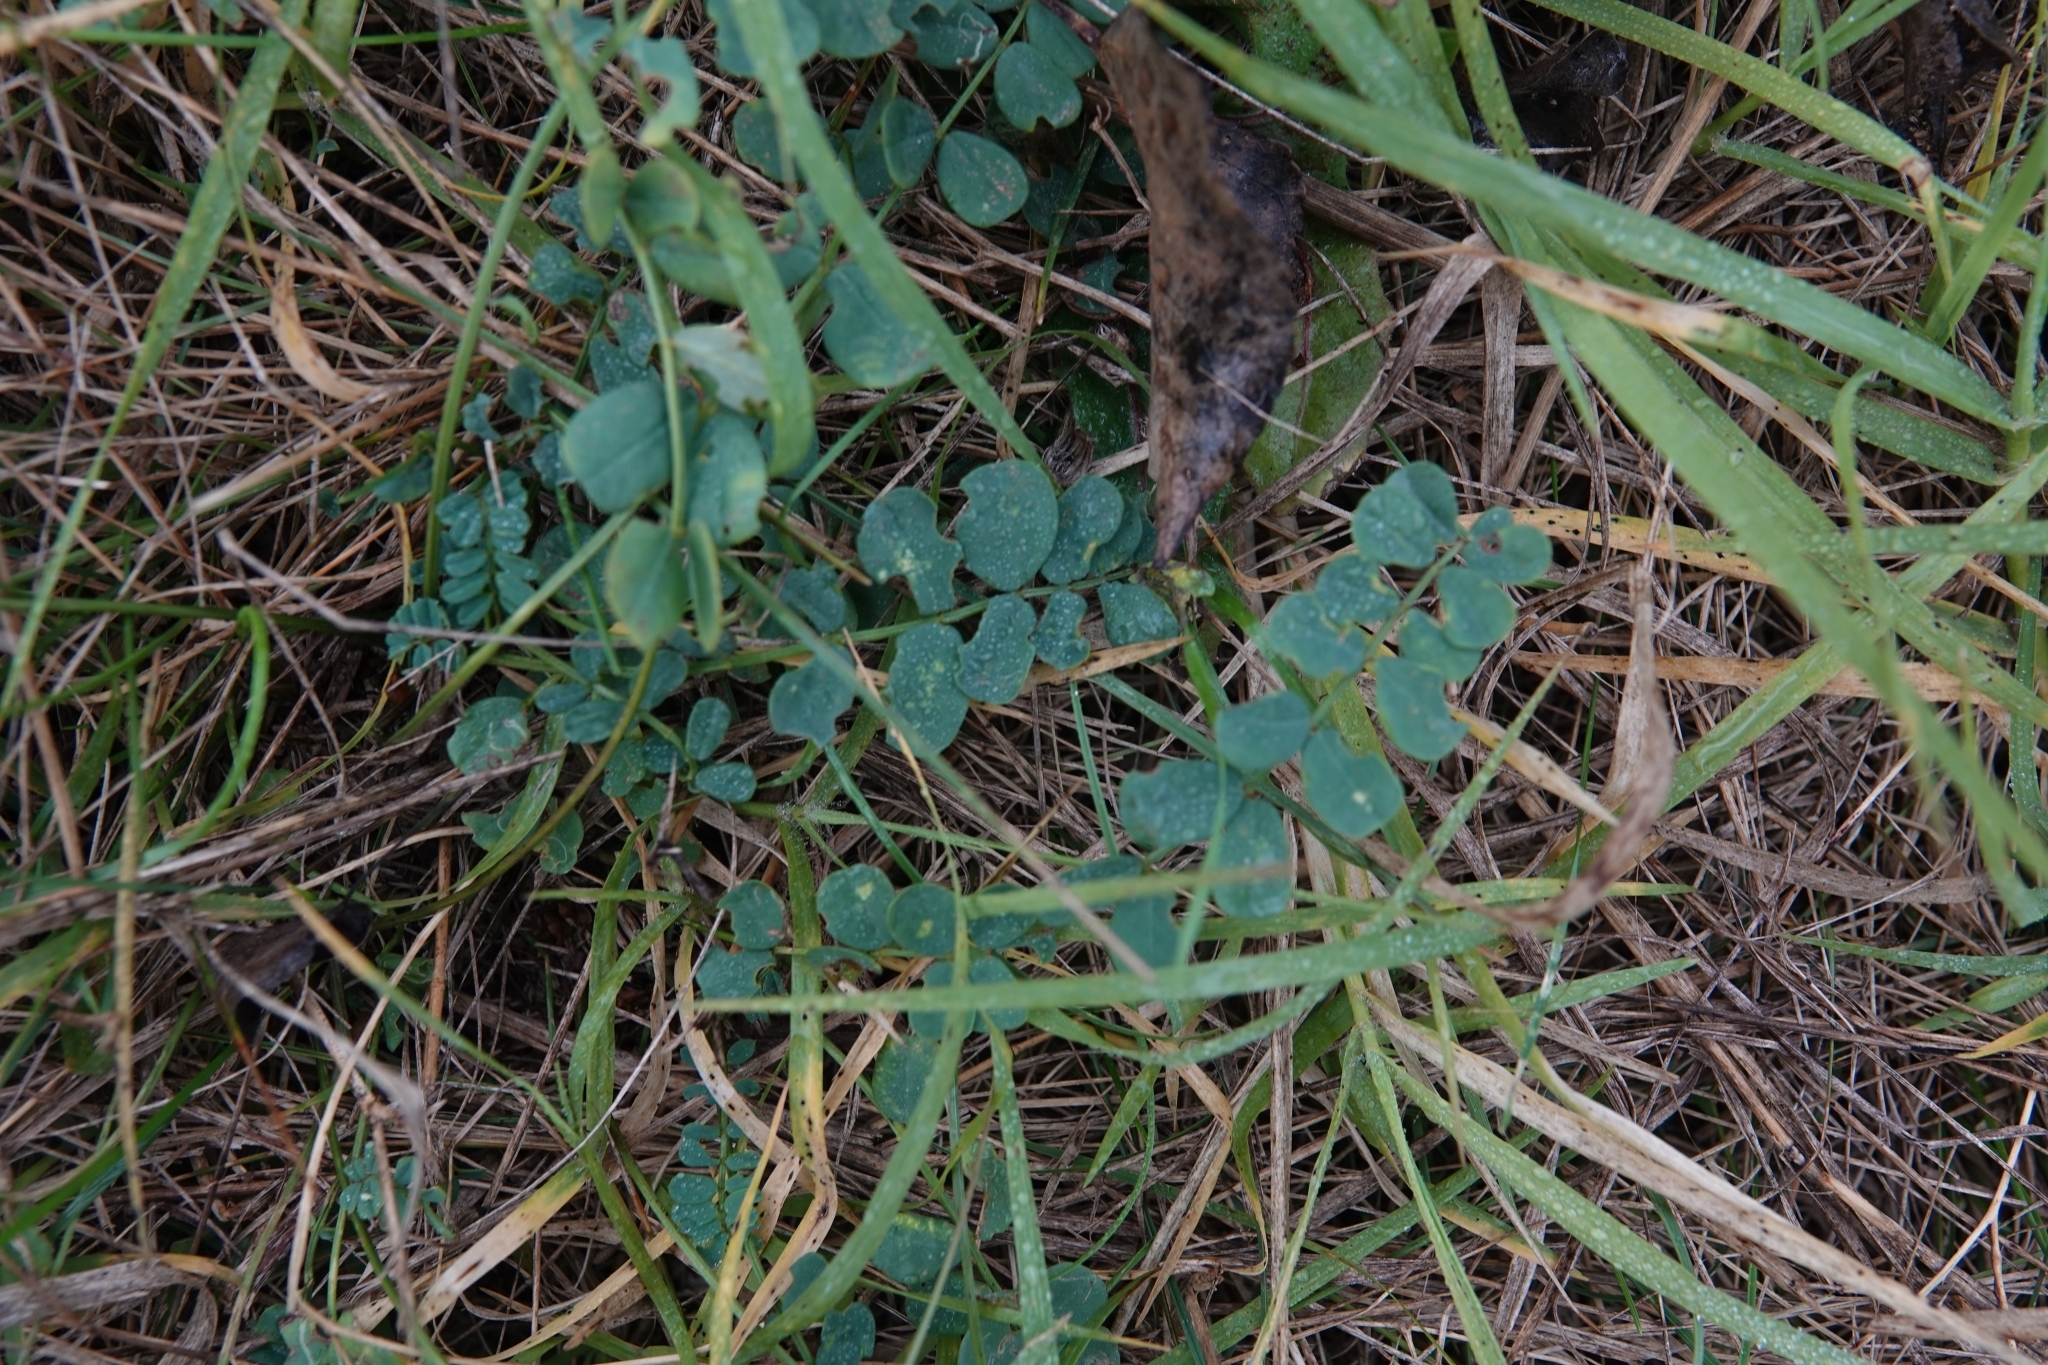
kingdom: Plantae
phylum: Tracheophyta
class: Magnoliopsida
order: Fabales
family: Fabaceae
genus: Coronilla
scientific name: Coronilla varia
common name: Crownvetch
